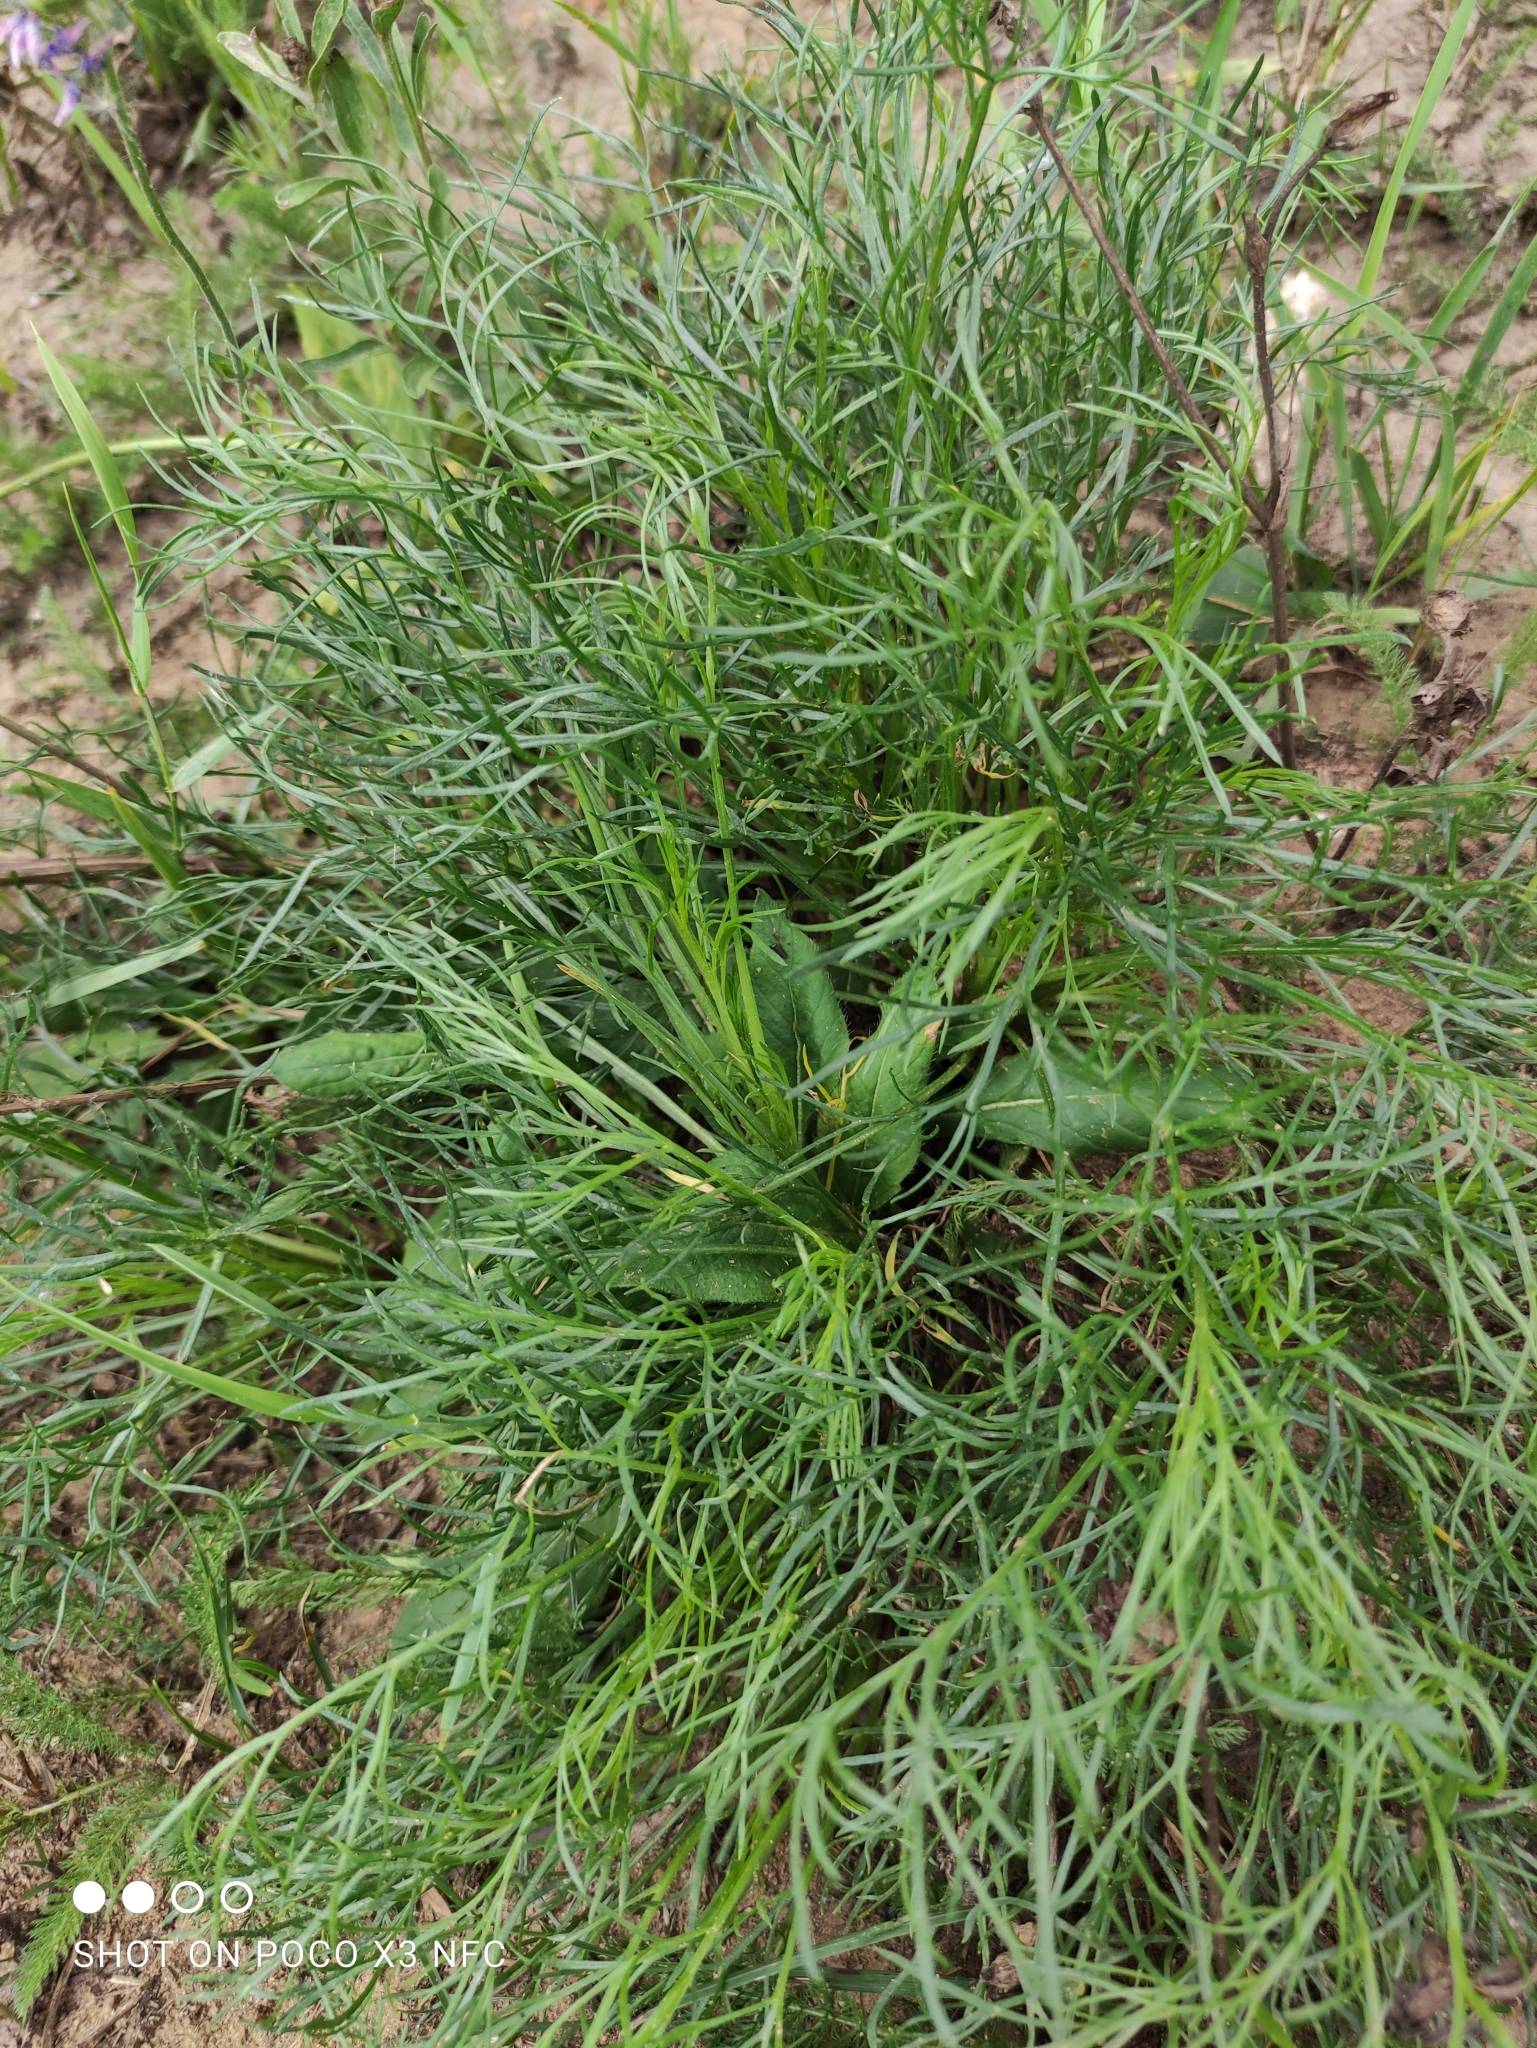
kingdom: Plantae
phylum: Tracheophyta
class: Magnoliopsida
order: Asterales
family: Asteraceae
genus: Artemisia
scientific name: Artemisia campestris
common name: Field wormwood
